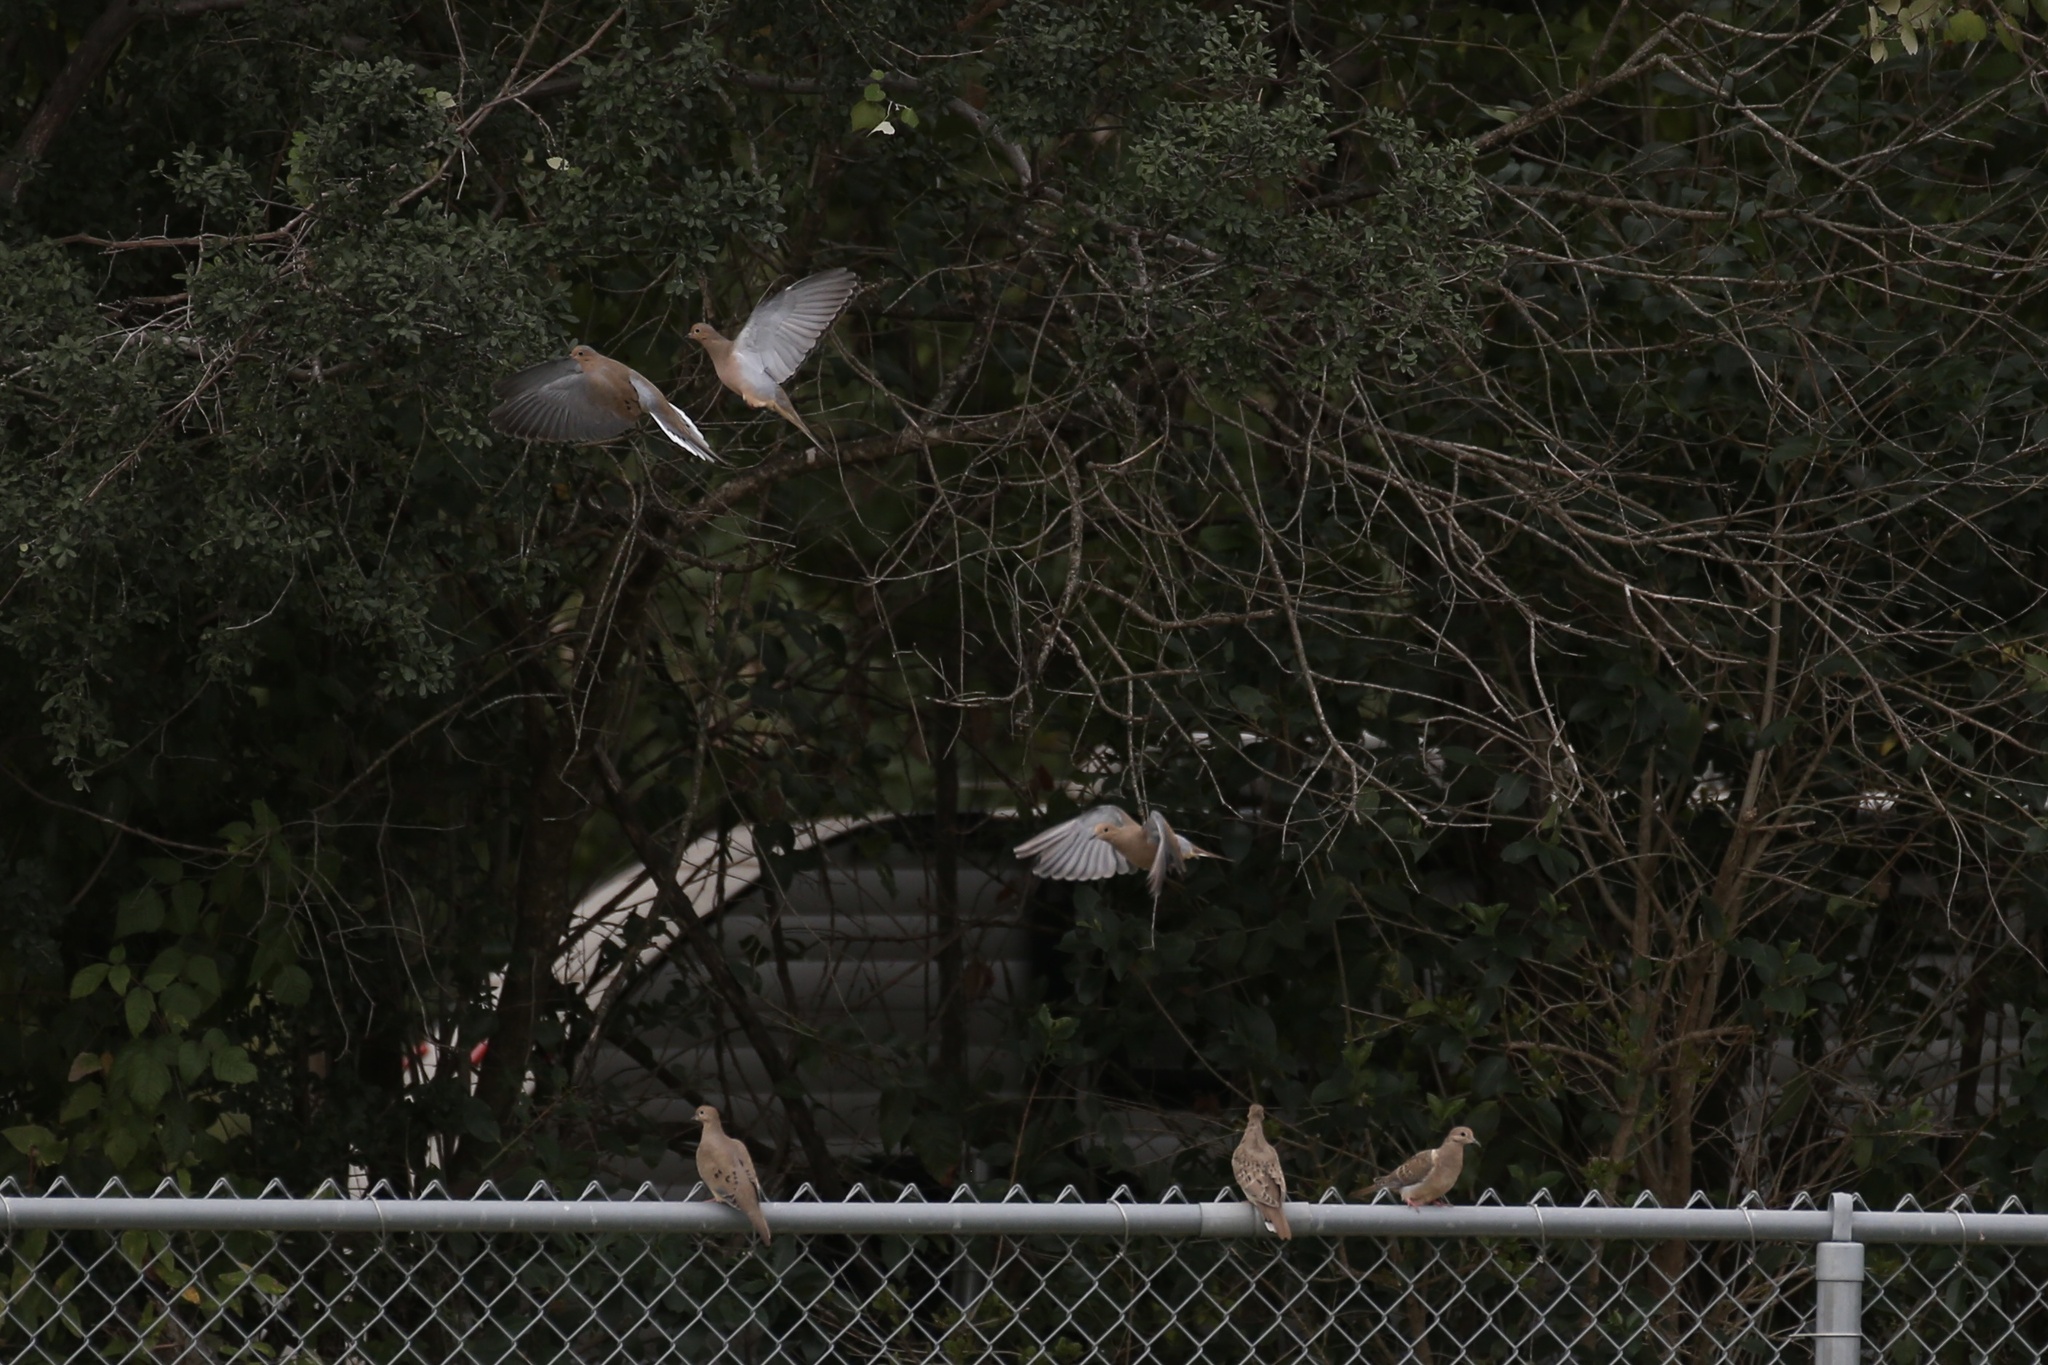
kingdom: Animalia
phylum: Chordata
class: Aves
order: Columbiformes
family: Columbidae
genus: Zenaida
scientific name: Zenaida macroura
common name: Mourning dove
